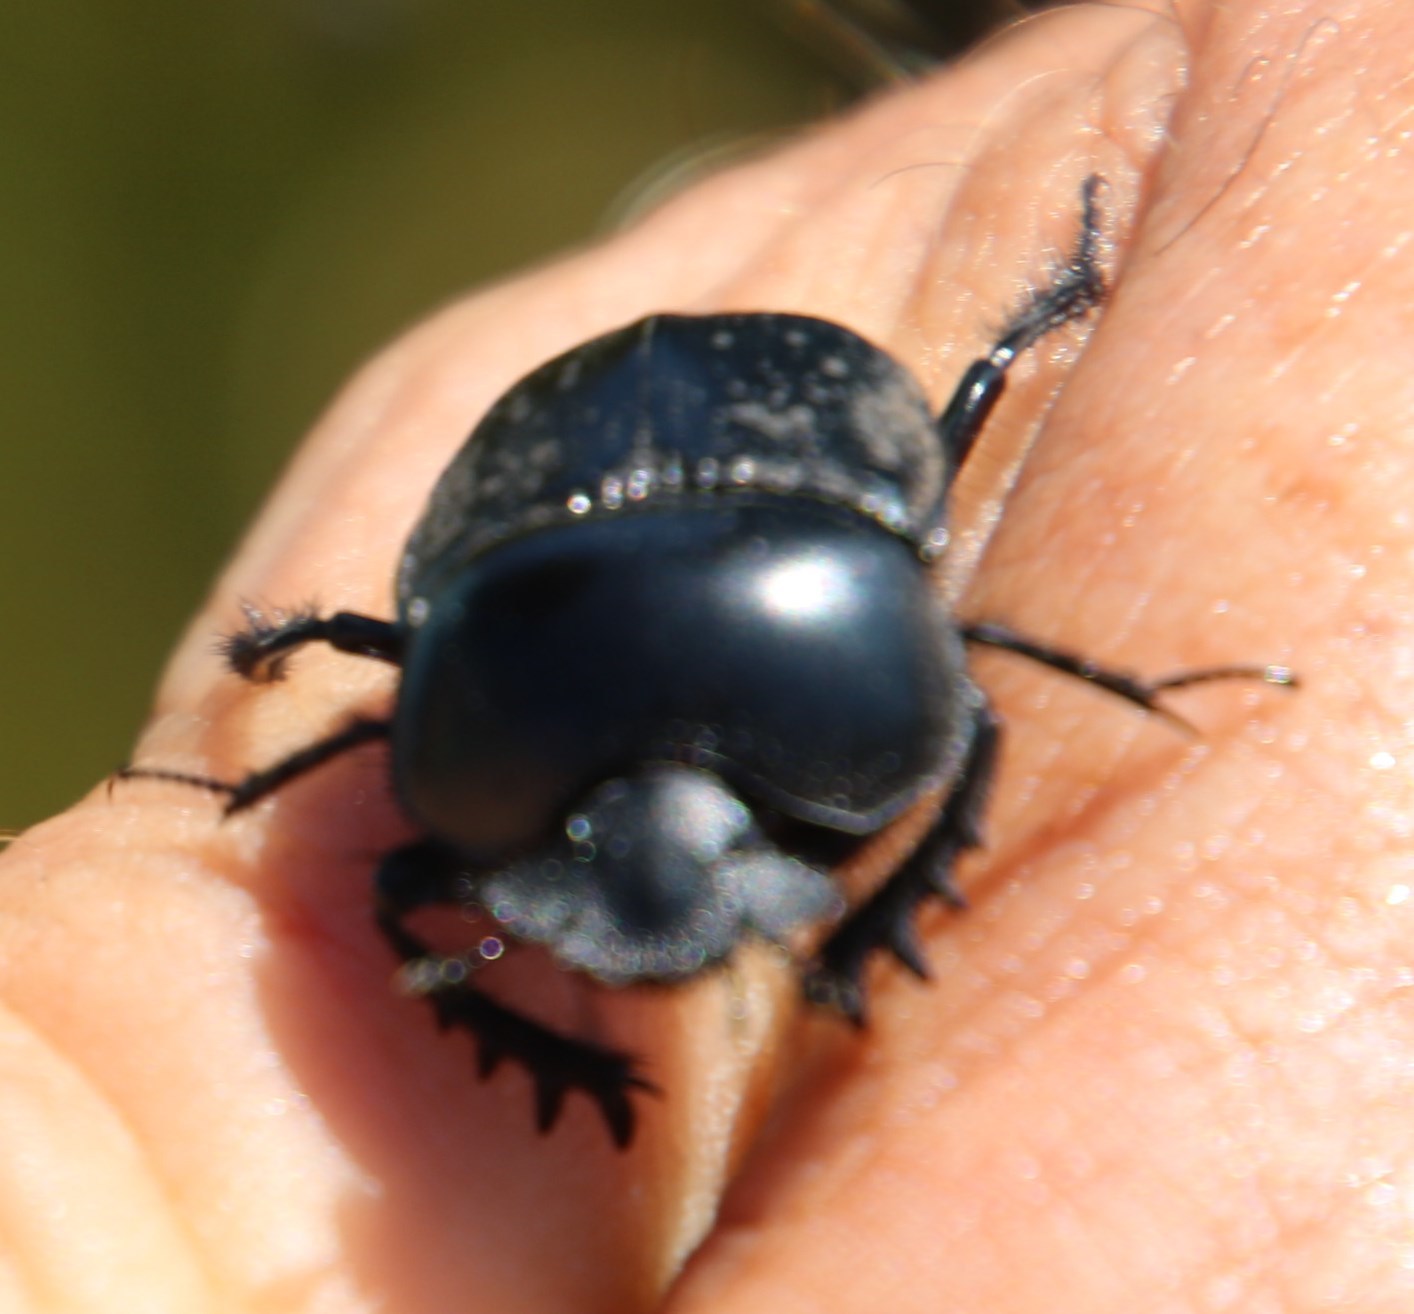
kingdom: Animalia
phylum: Arthropoda
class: Insecta
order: Coleoptera
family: Scarabaeidae
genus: Scarabaeus
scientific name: Scarabaeus convexus
